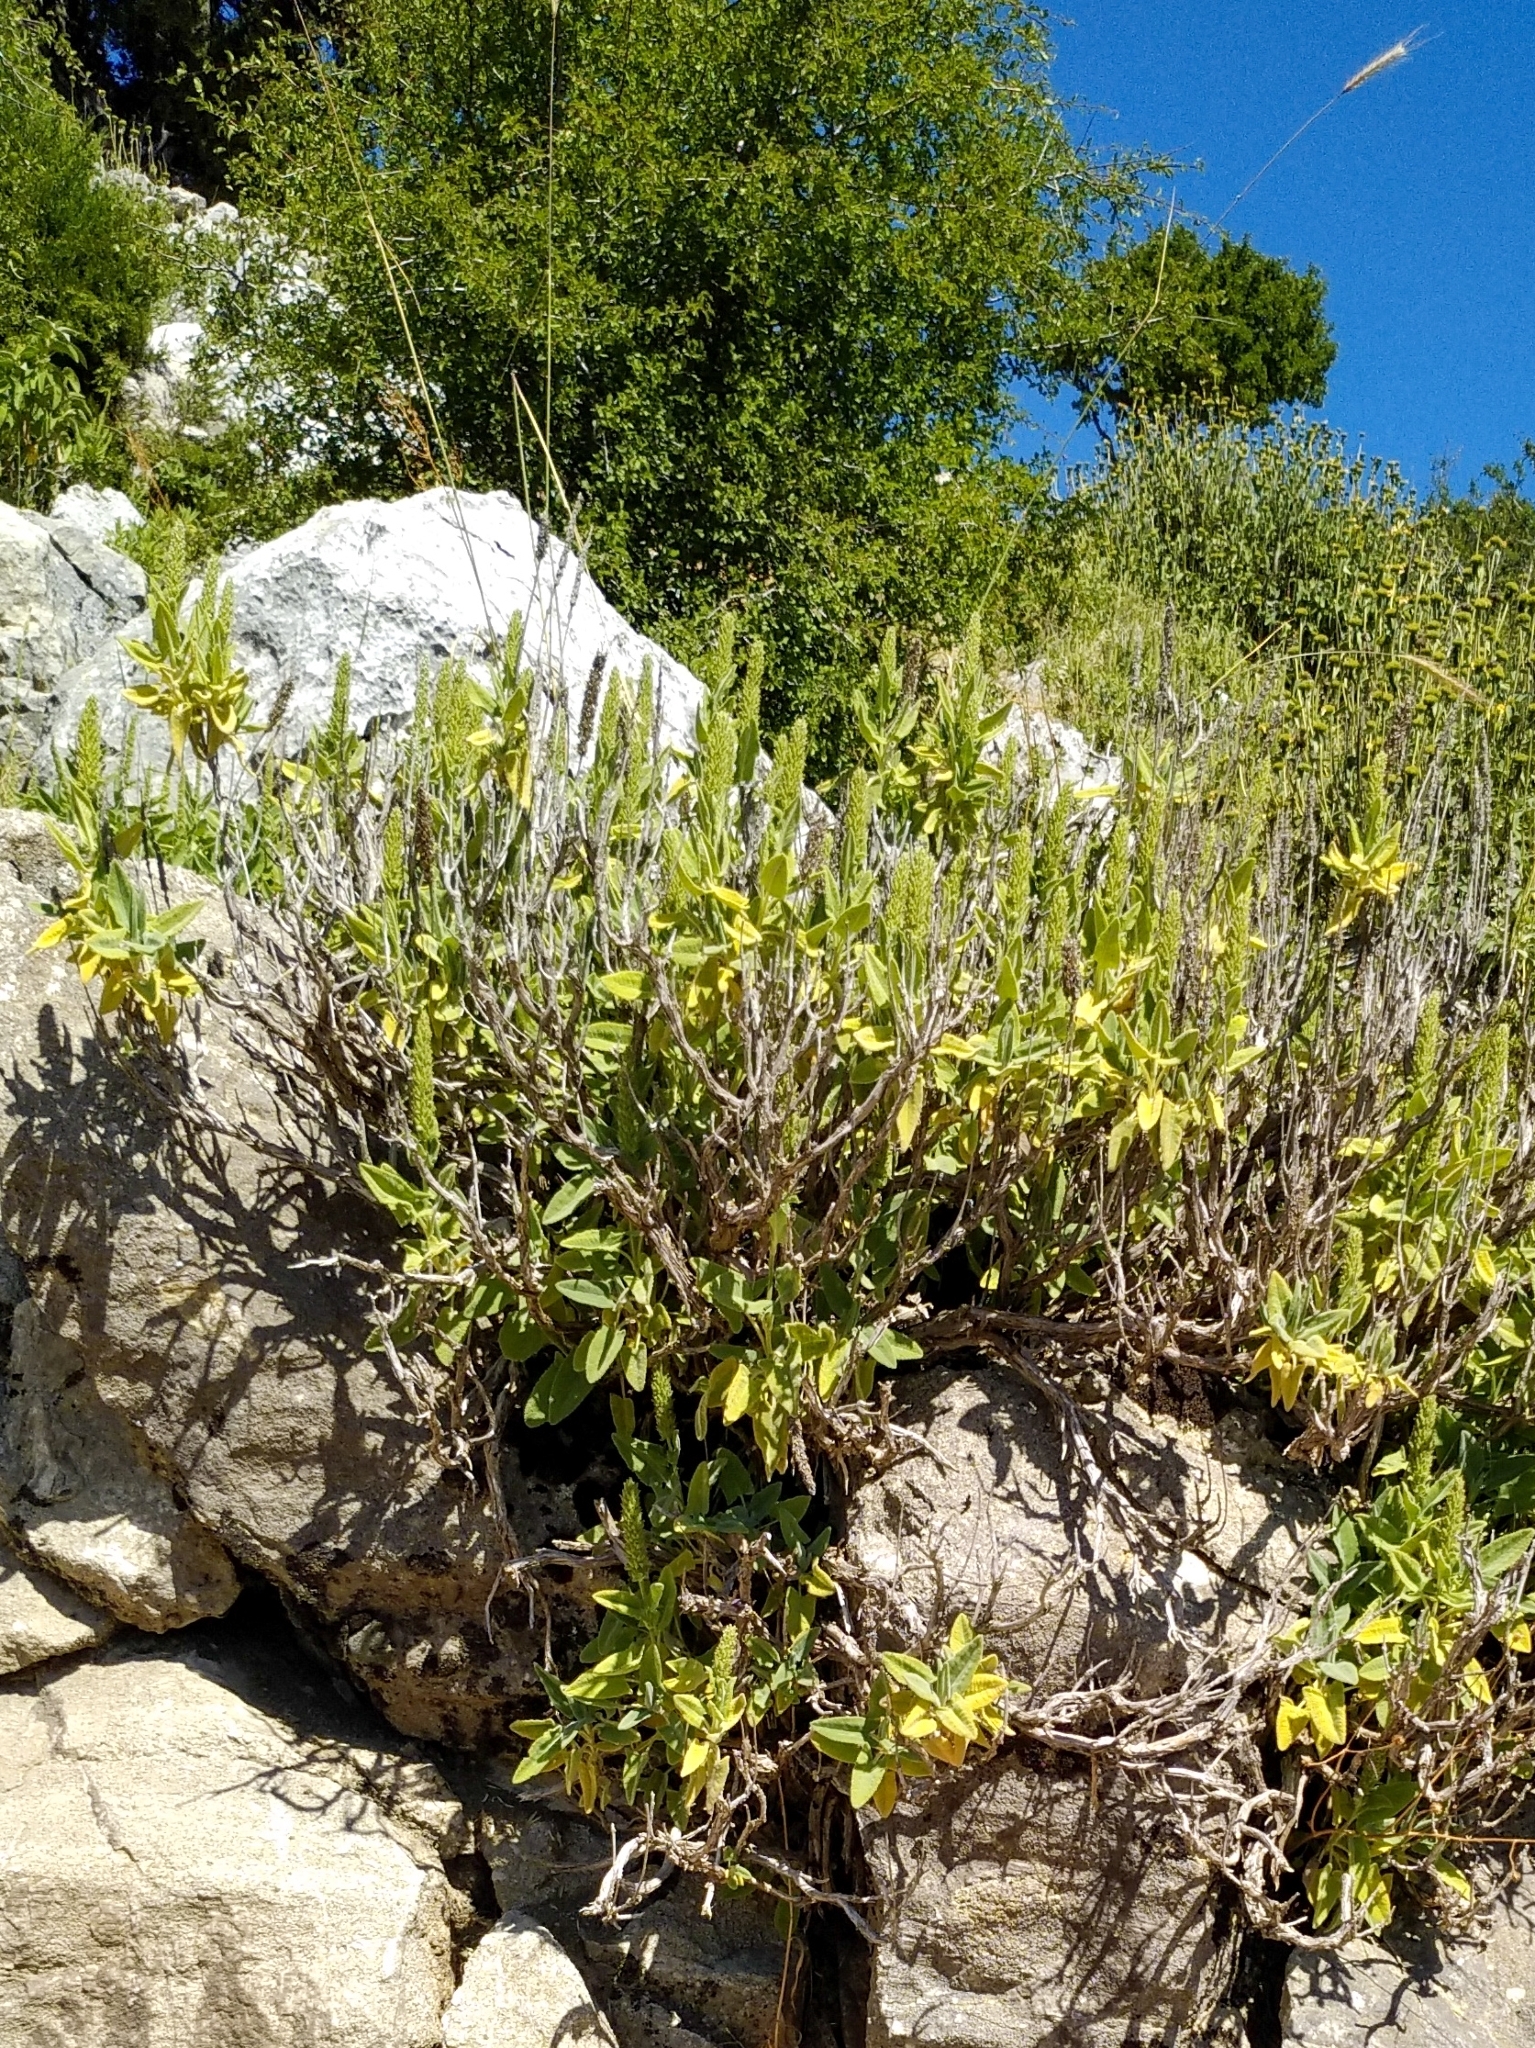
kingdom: Plantae
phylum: Tracheophyta
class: Magnoliopsida
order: Lamiales
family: Lamiaceae
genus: Salvia
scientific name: Salvia dorystaechas
